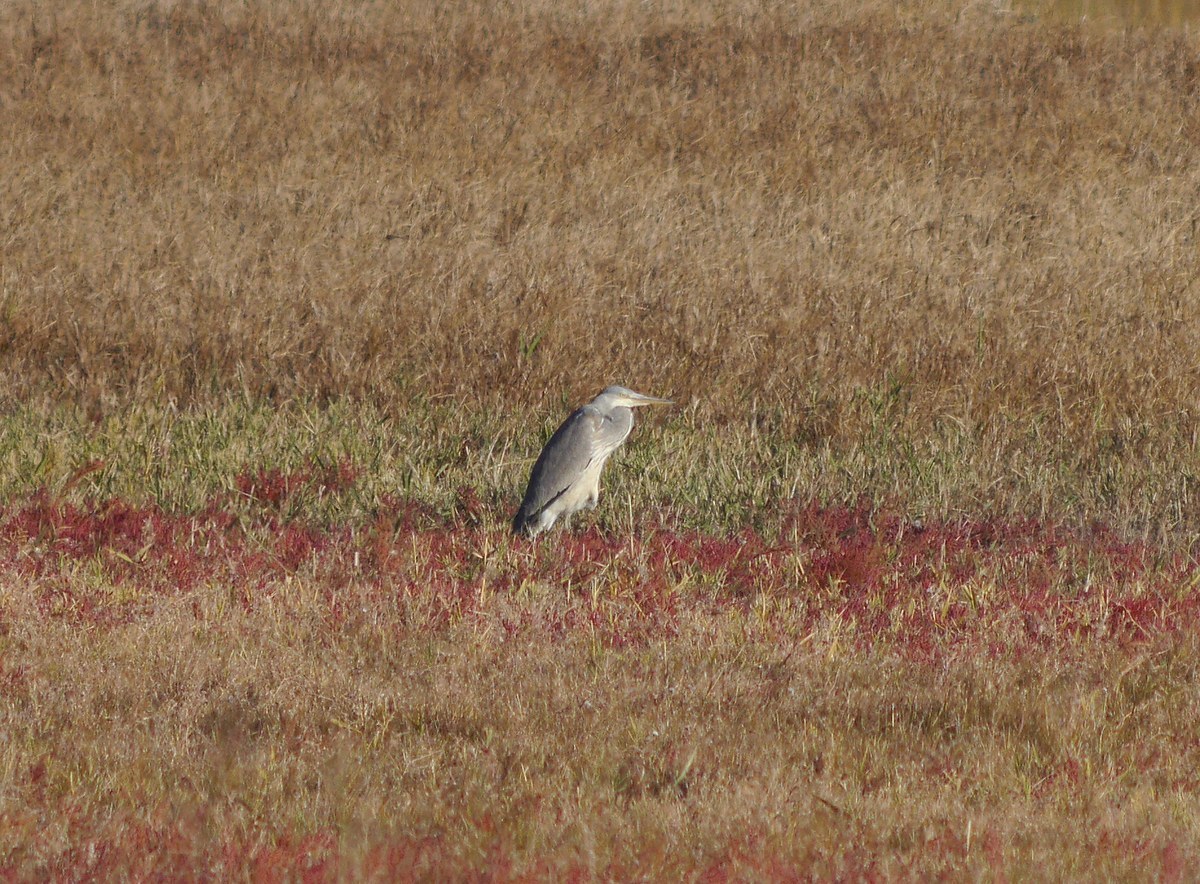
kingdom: Animalia
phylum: Chordata
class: Aves
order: Pelecaniformes
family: Ardeidae
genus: Ardea
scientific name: Ardea cinerea
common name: Grey heron
